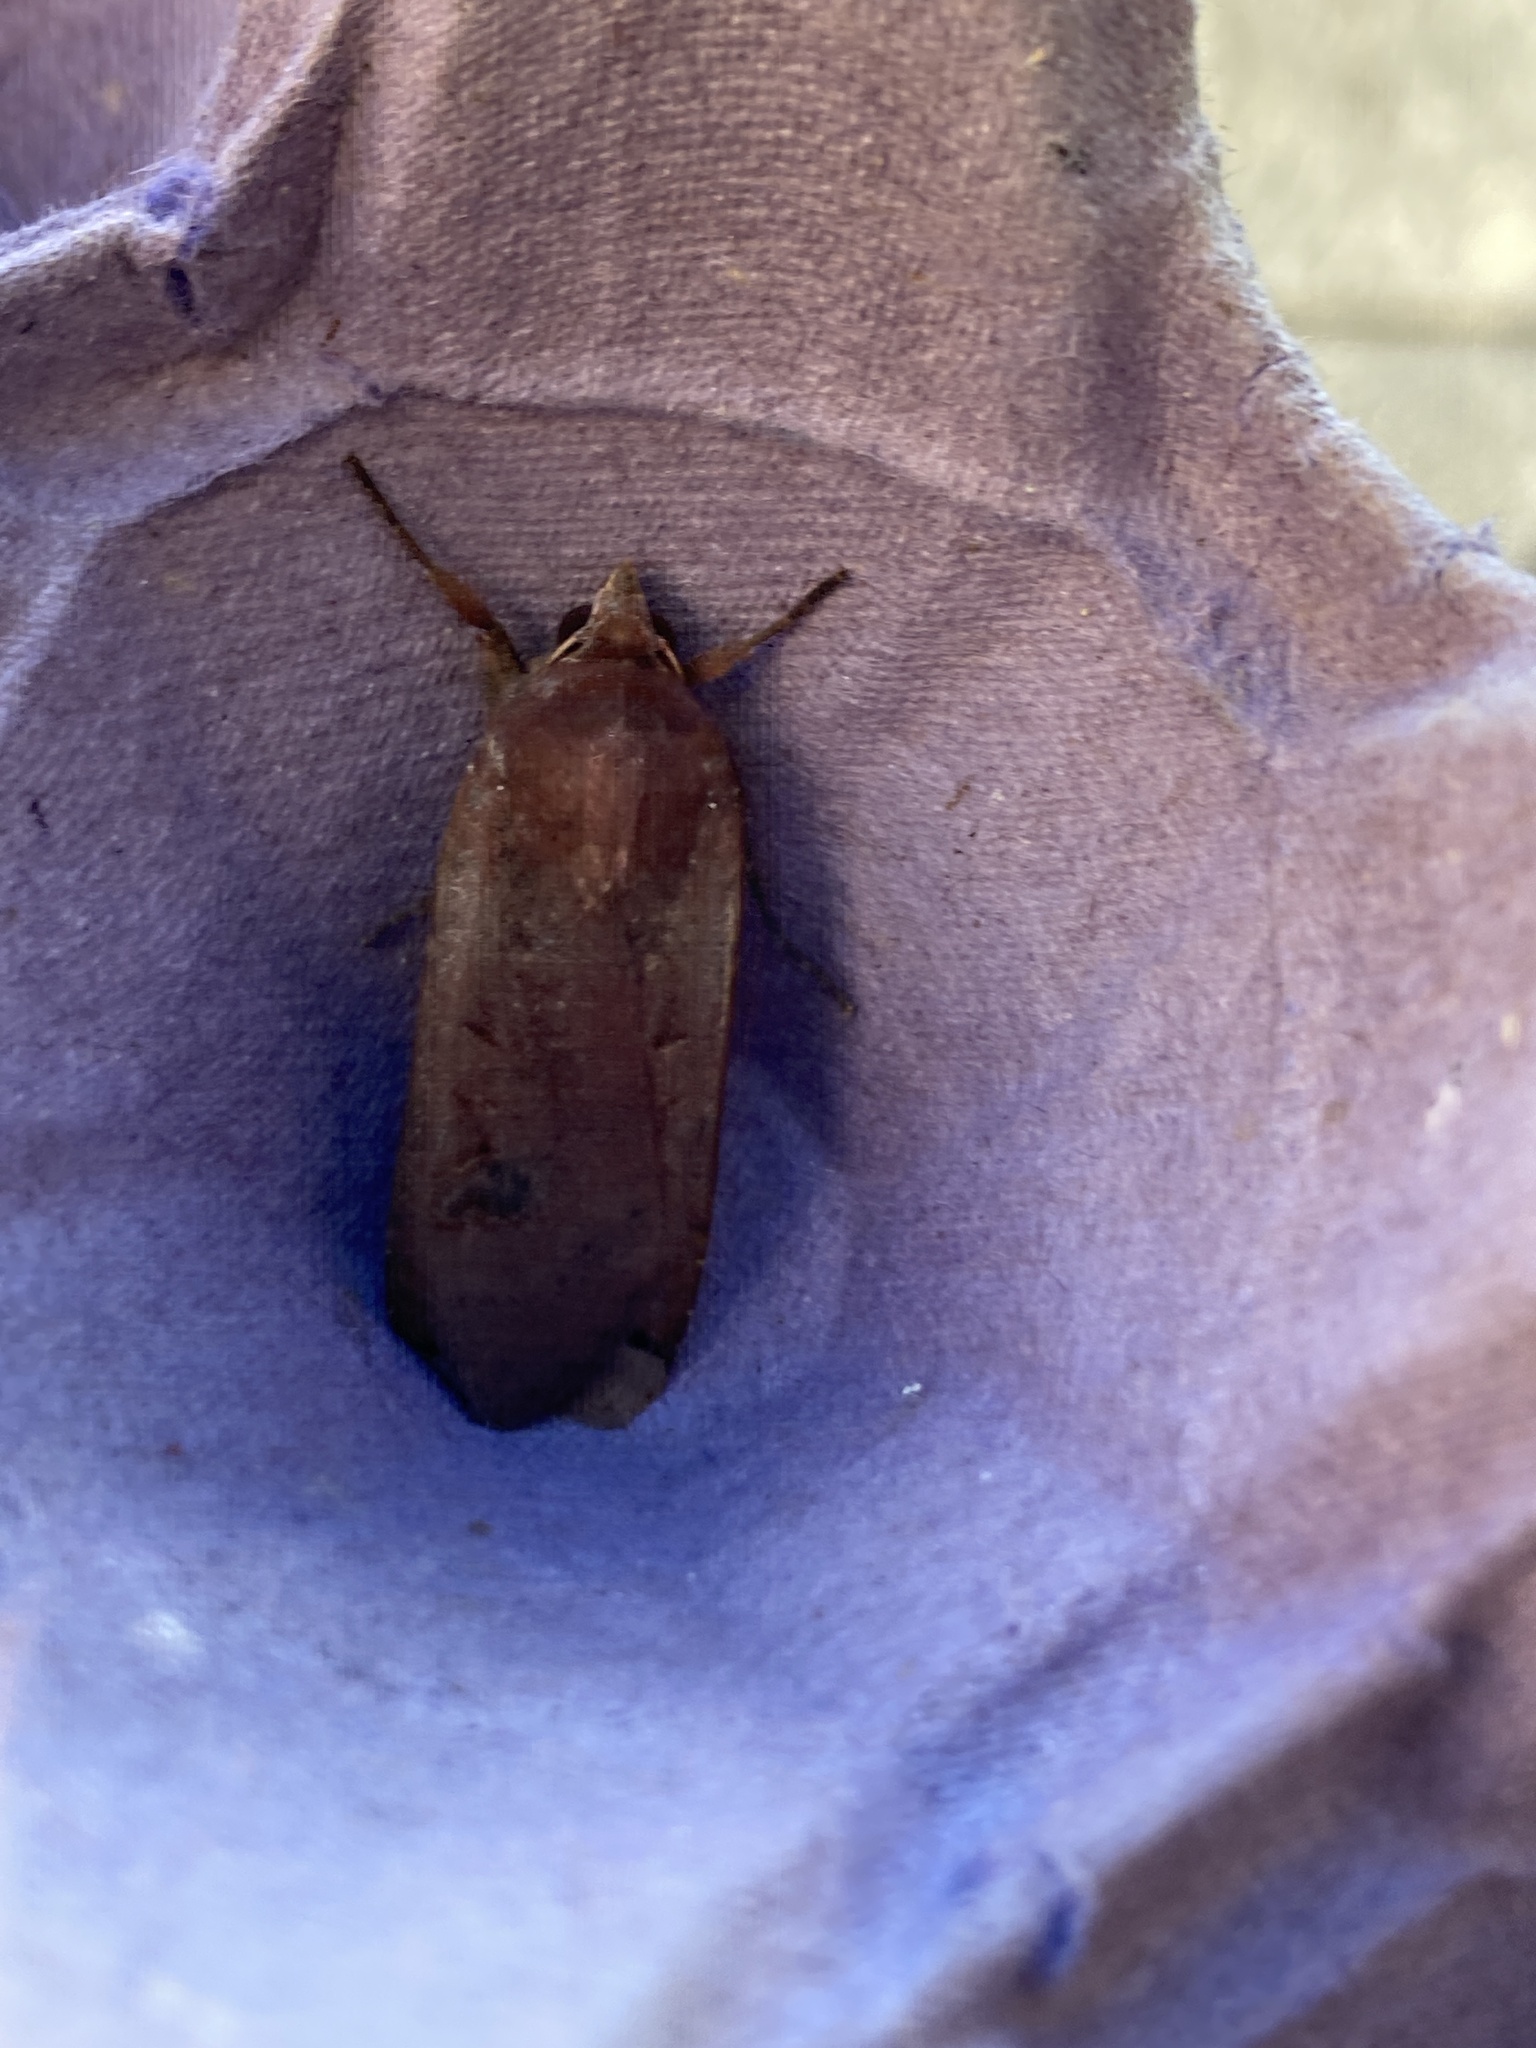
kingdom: Animalia
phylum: Arthropoda
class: Insecta
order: Lepidoptera
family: Noctuidae
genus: Noctua
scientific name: Noctua pronuba
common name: Large yellow underwing
